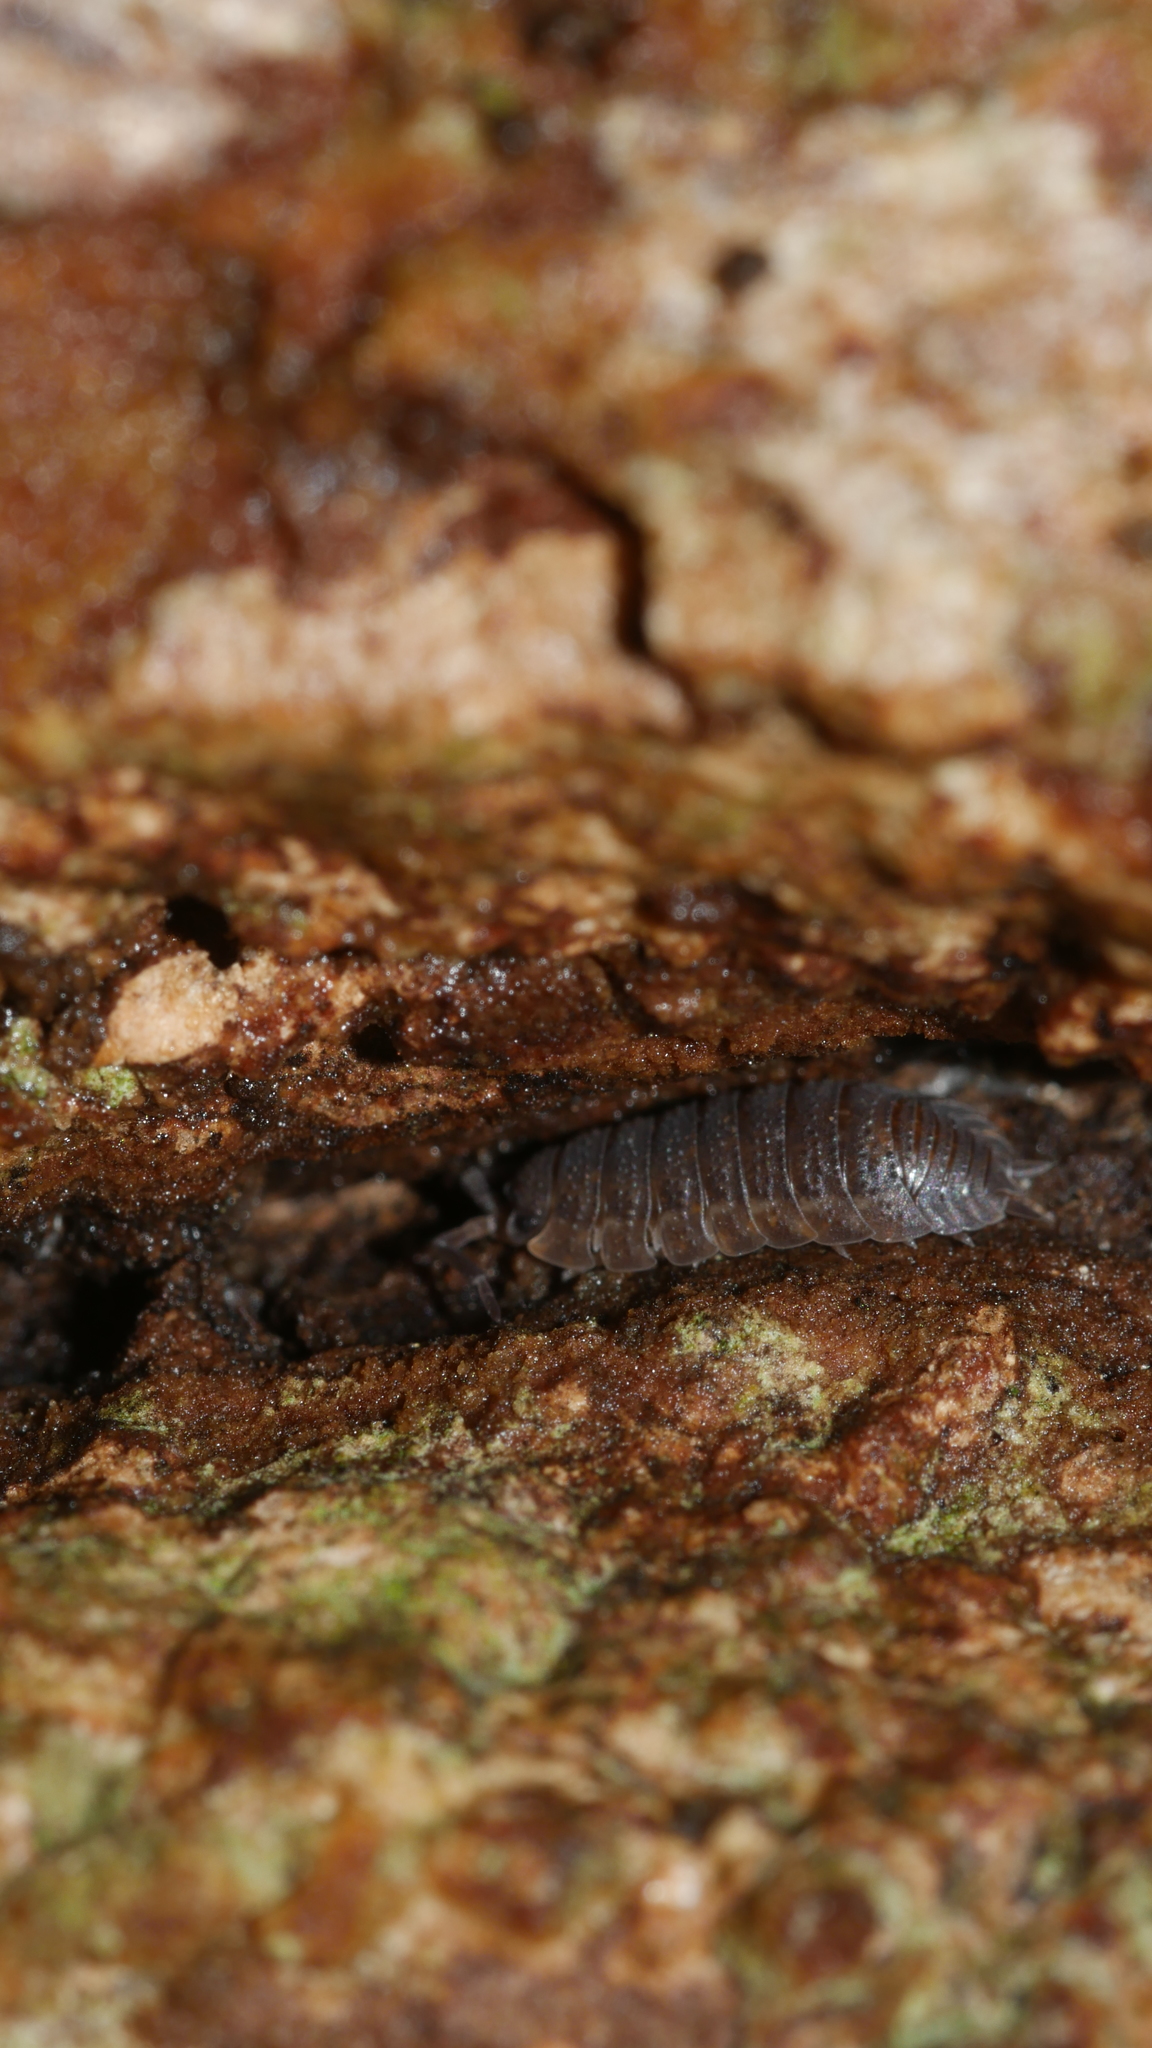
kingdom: Animalia
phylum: Arthropoda
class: Malacostraca
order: Isopoda
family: Porcellionidae
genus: Porcellio
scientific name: Porcellio scaber
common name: Common rough woodlouse
